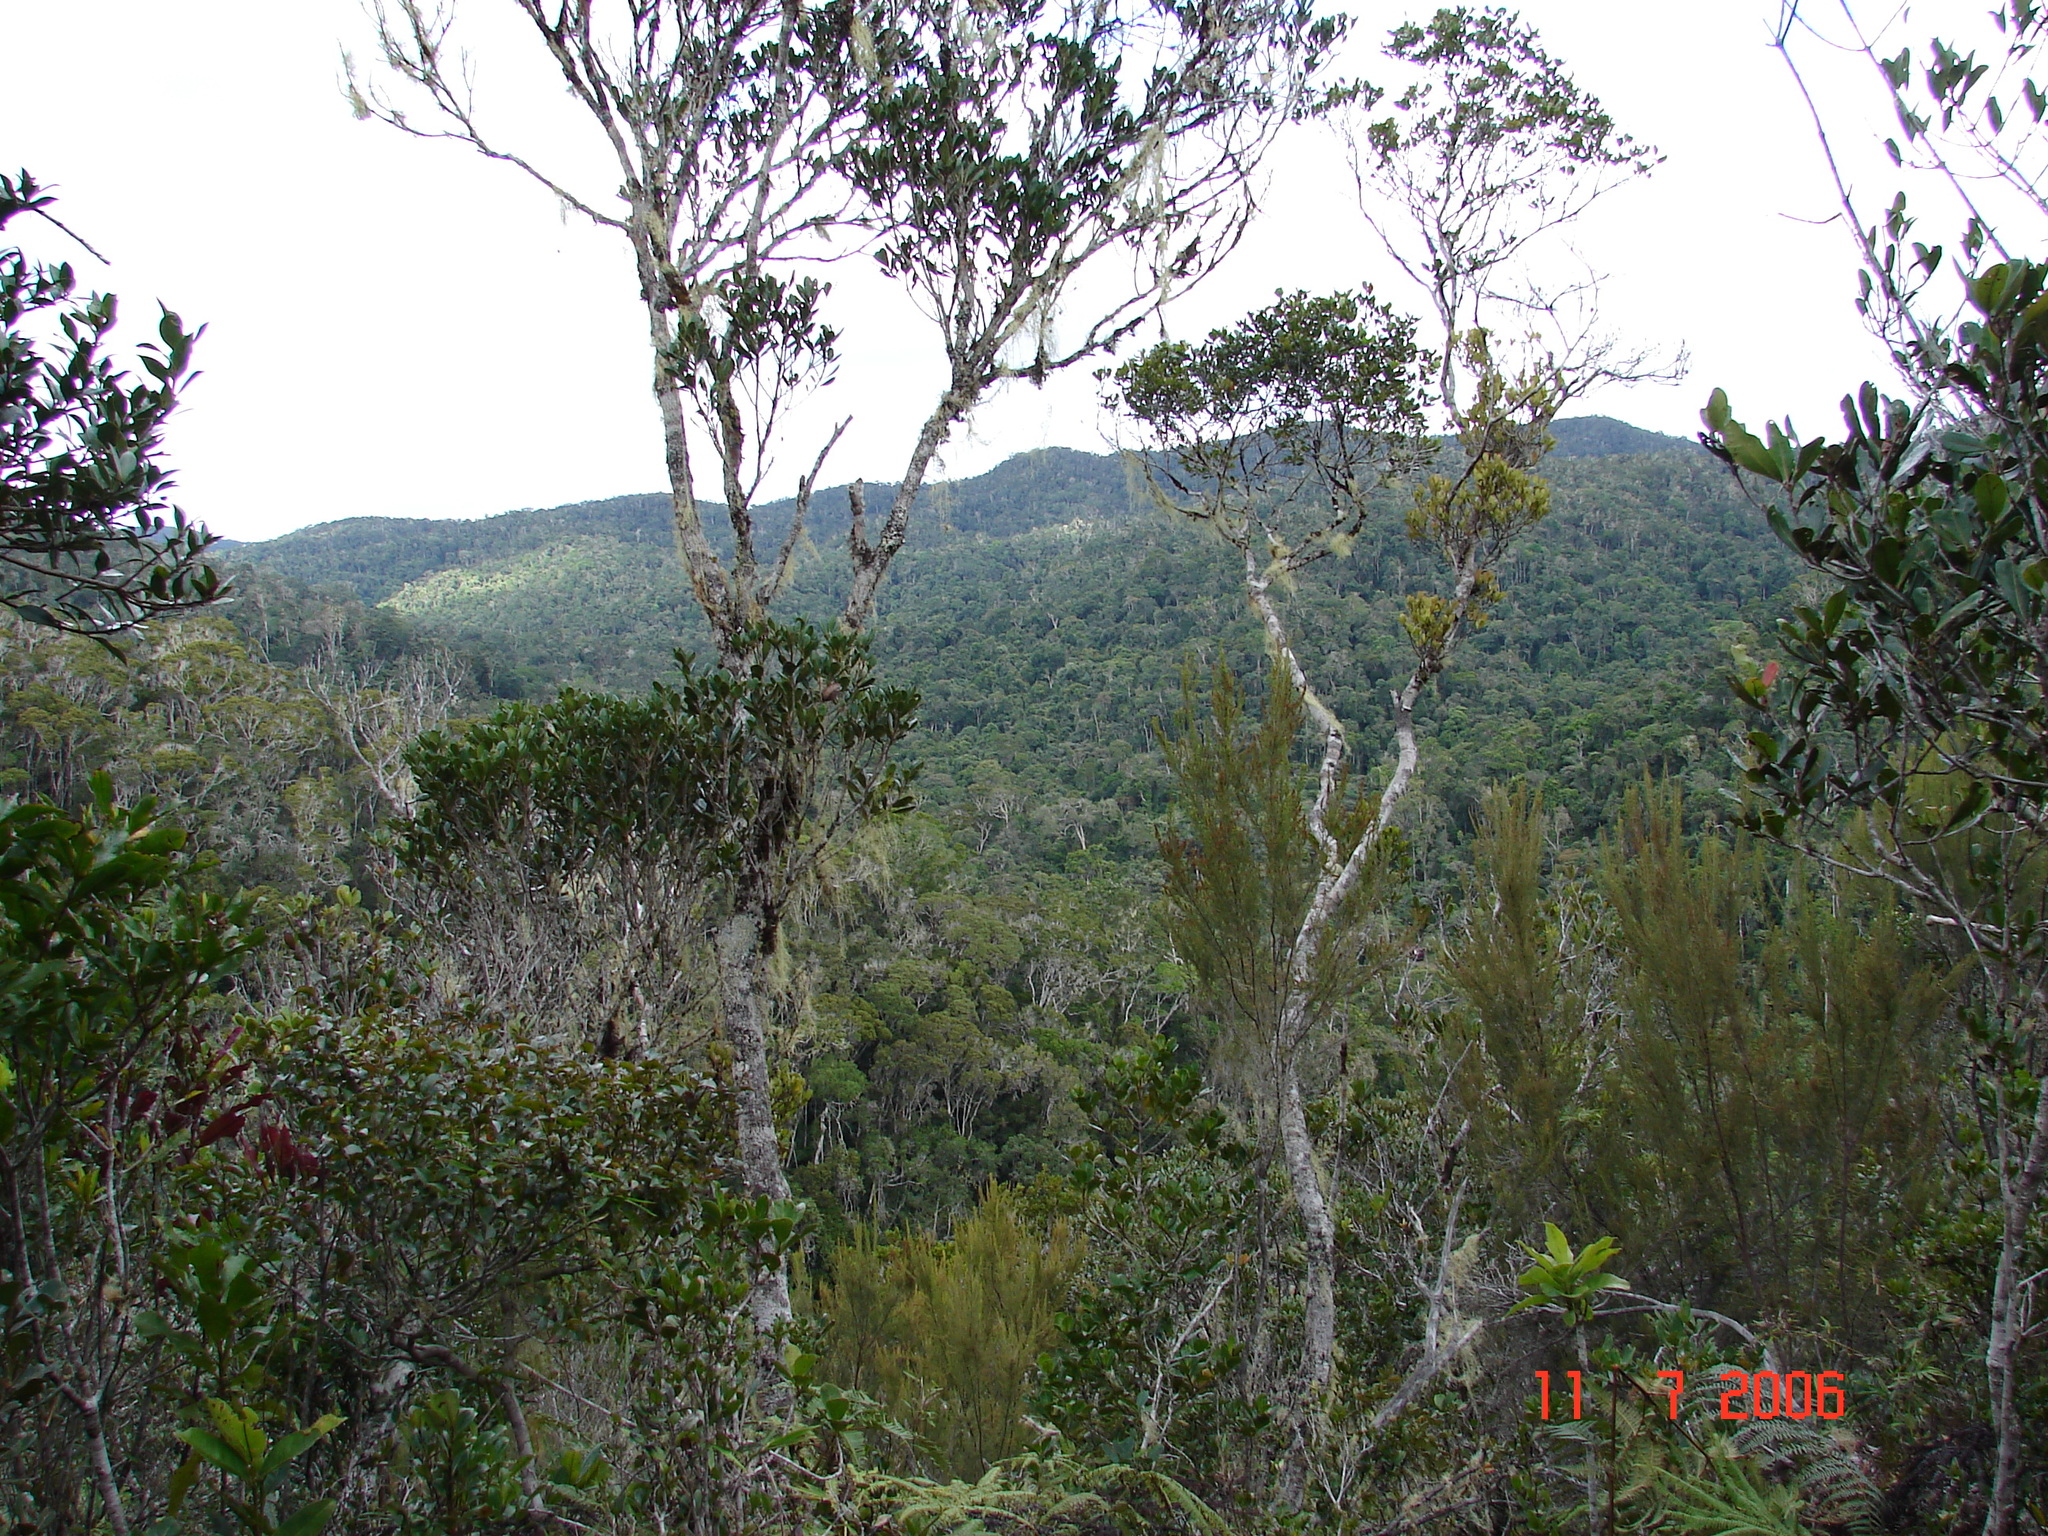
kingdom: Animalia
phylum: Chordata
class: Mammalia
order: Primates
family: Indriidae
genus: Indri
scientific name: Indri indri
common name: Indri
